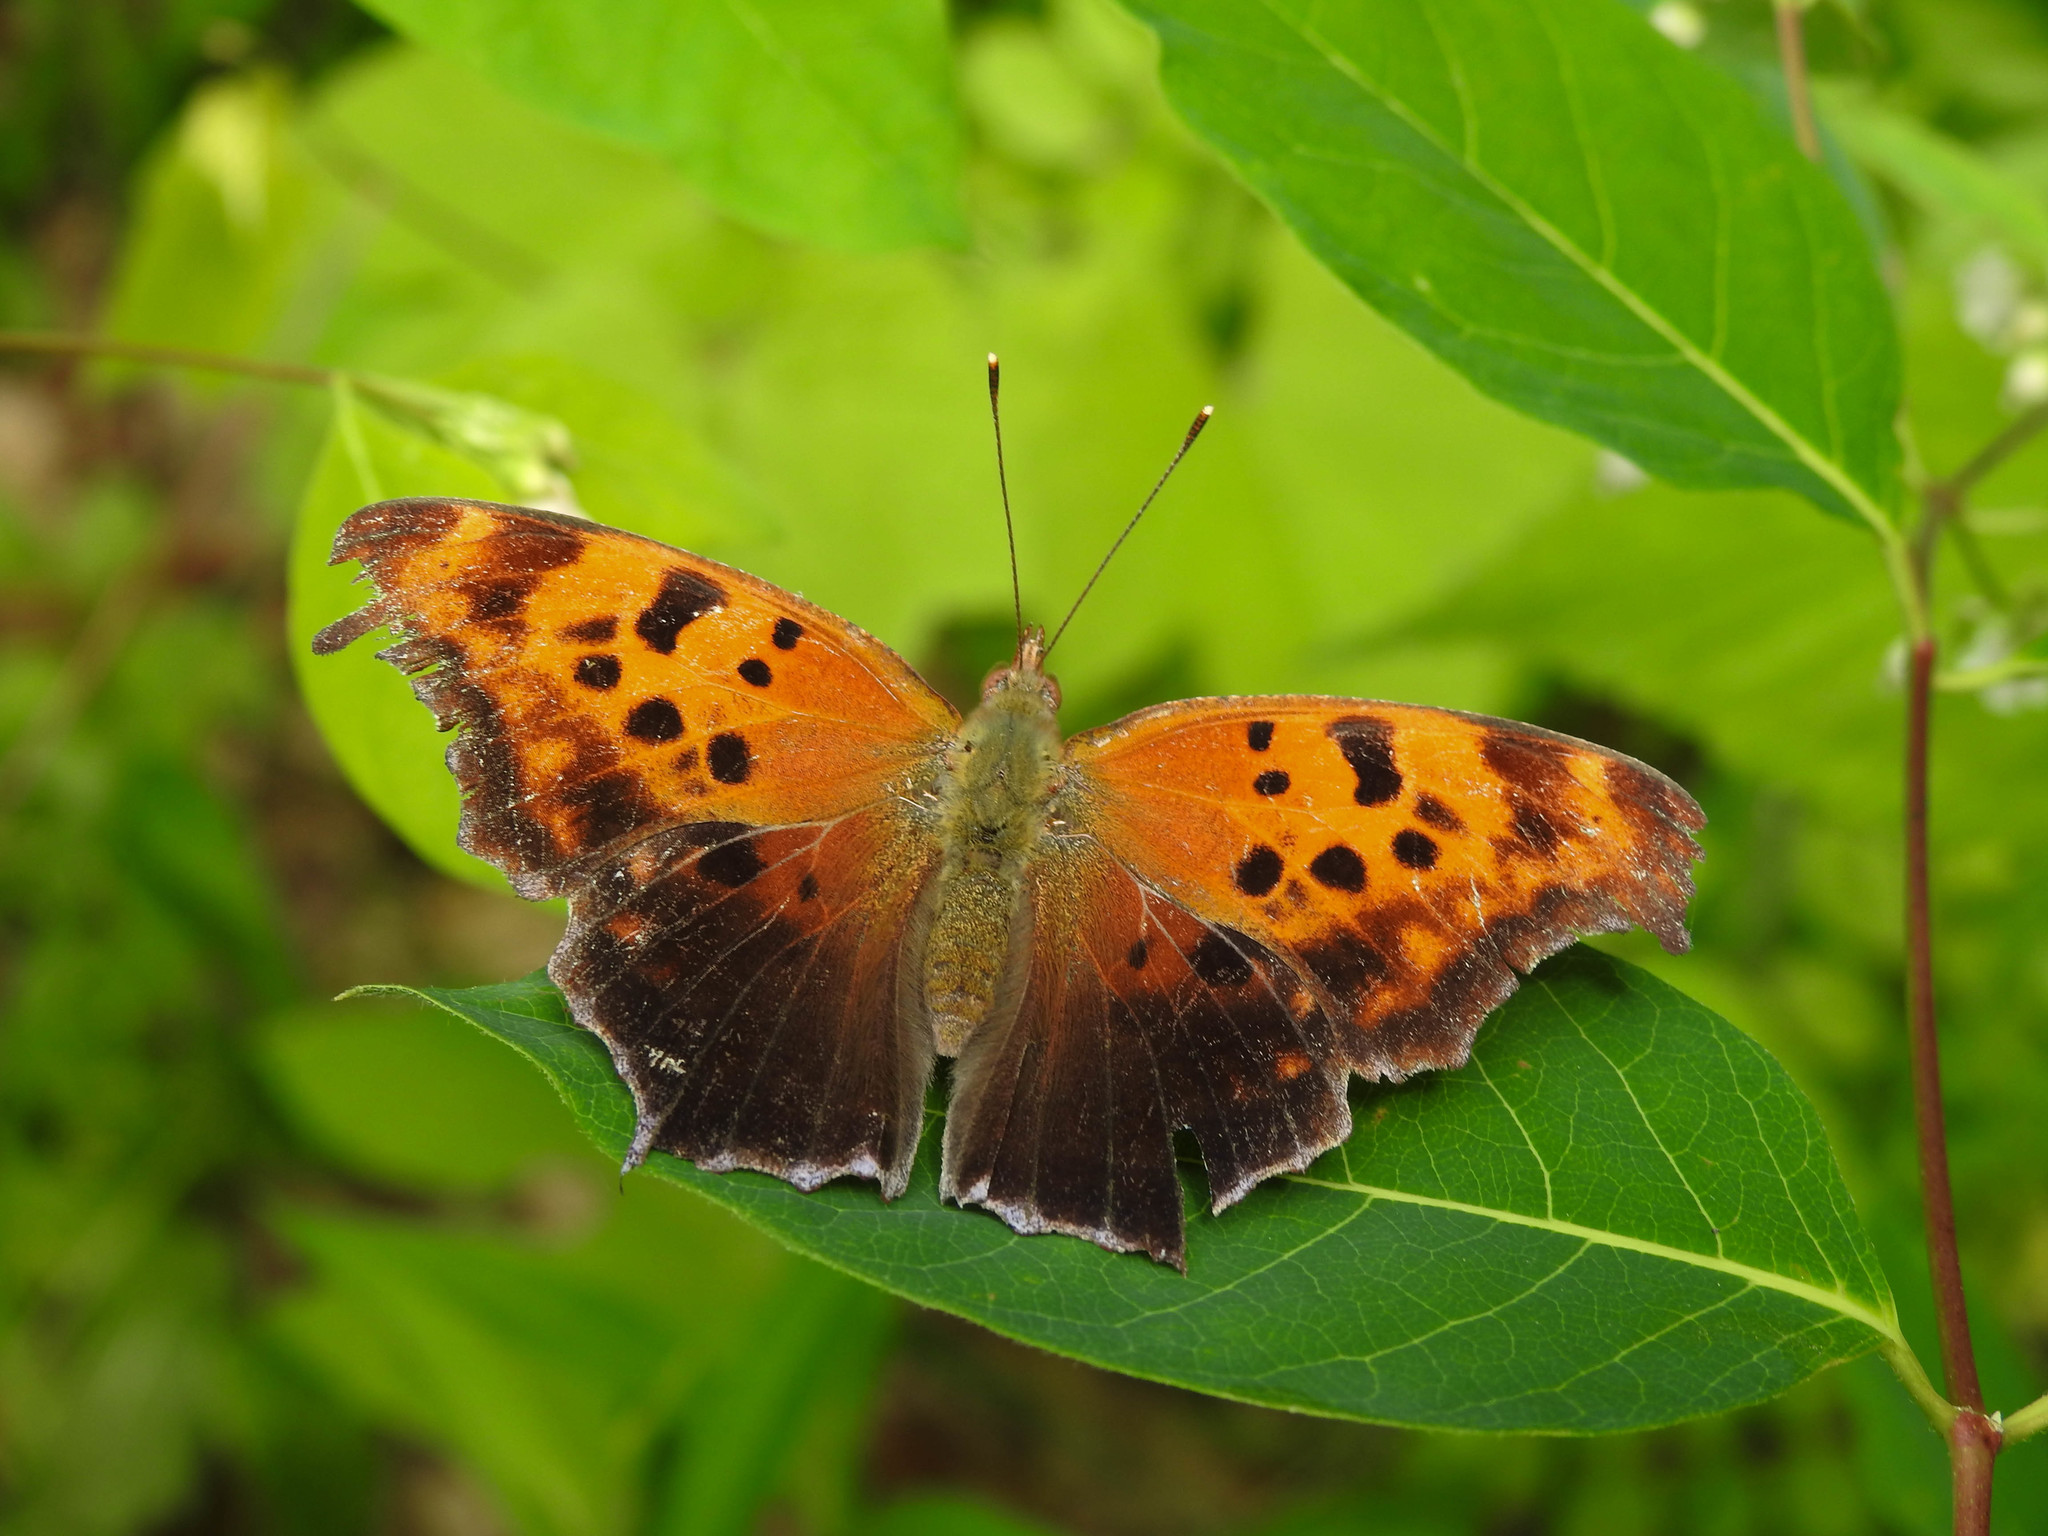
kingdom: Animalia
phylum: Arthropoda
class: Insecta
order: Lepidoptera
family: Nymphalidae
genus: Polygonia
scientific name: Polygonia interrogationis
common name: Question mark
